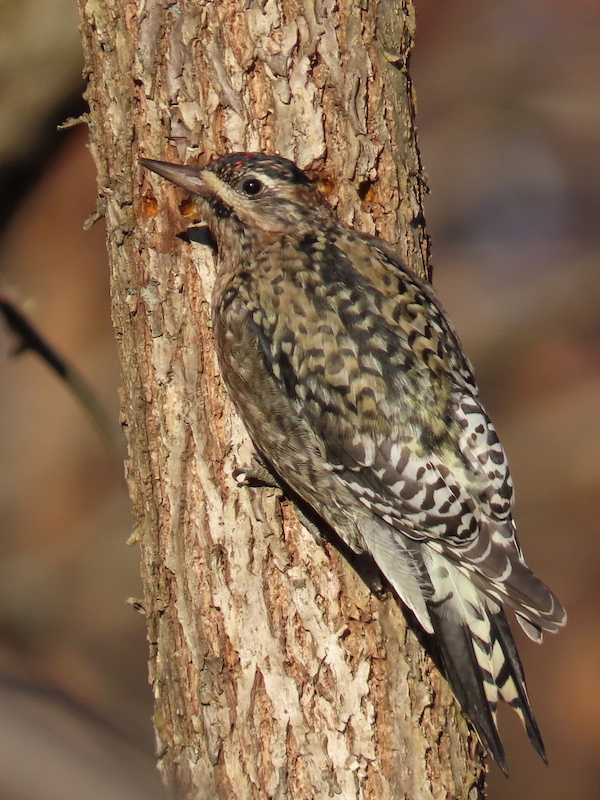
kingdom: Animalia
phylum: Chordata
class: Aves
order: Piciformes
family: Picidae
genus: Sphyrapicus
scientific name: Sphyrapicus varius
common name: Yellow-bellied sapsucker
